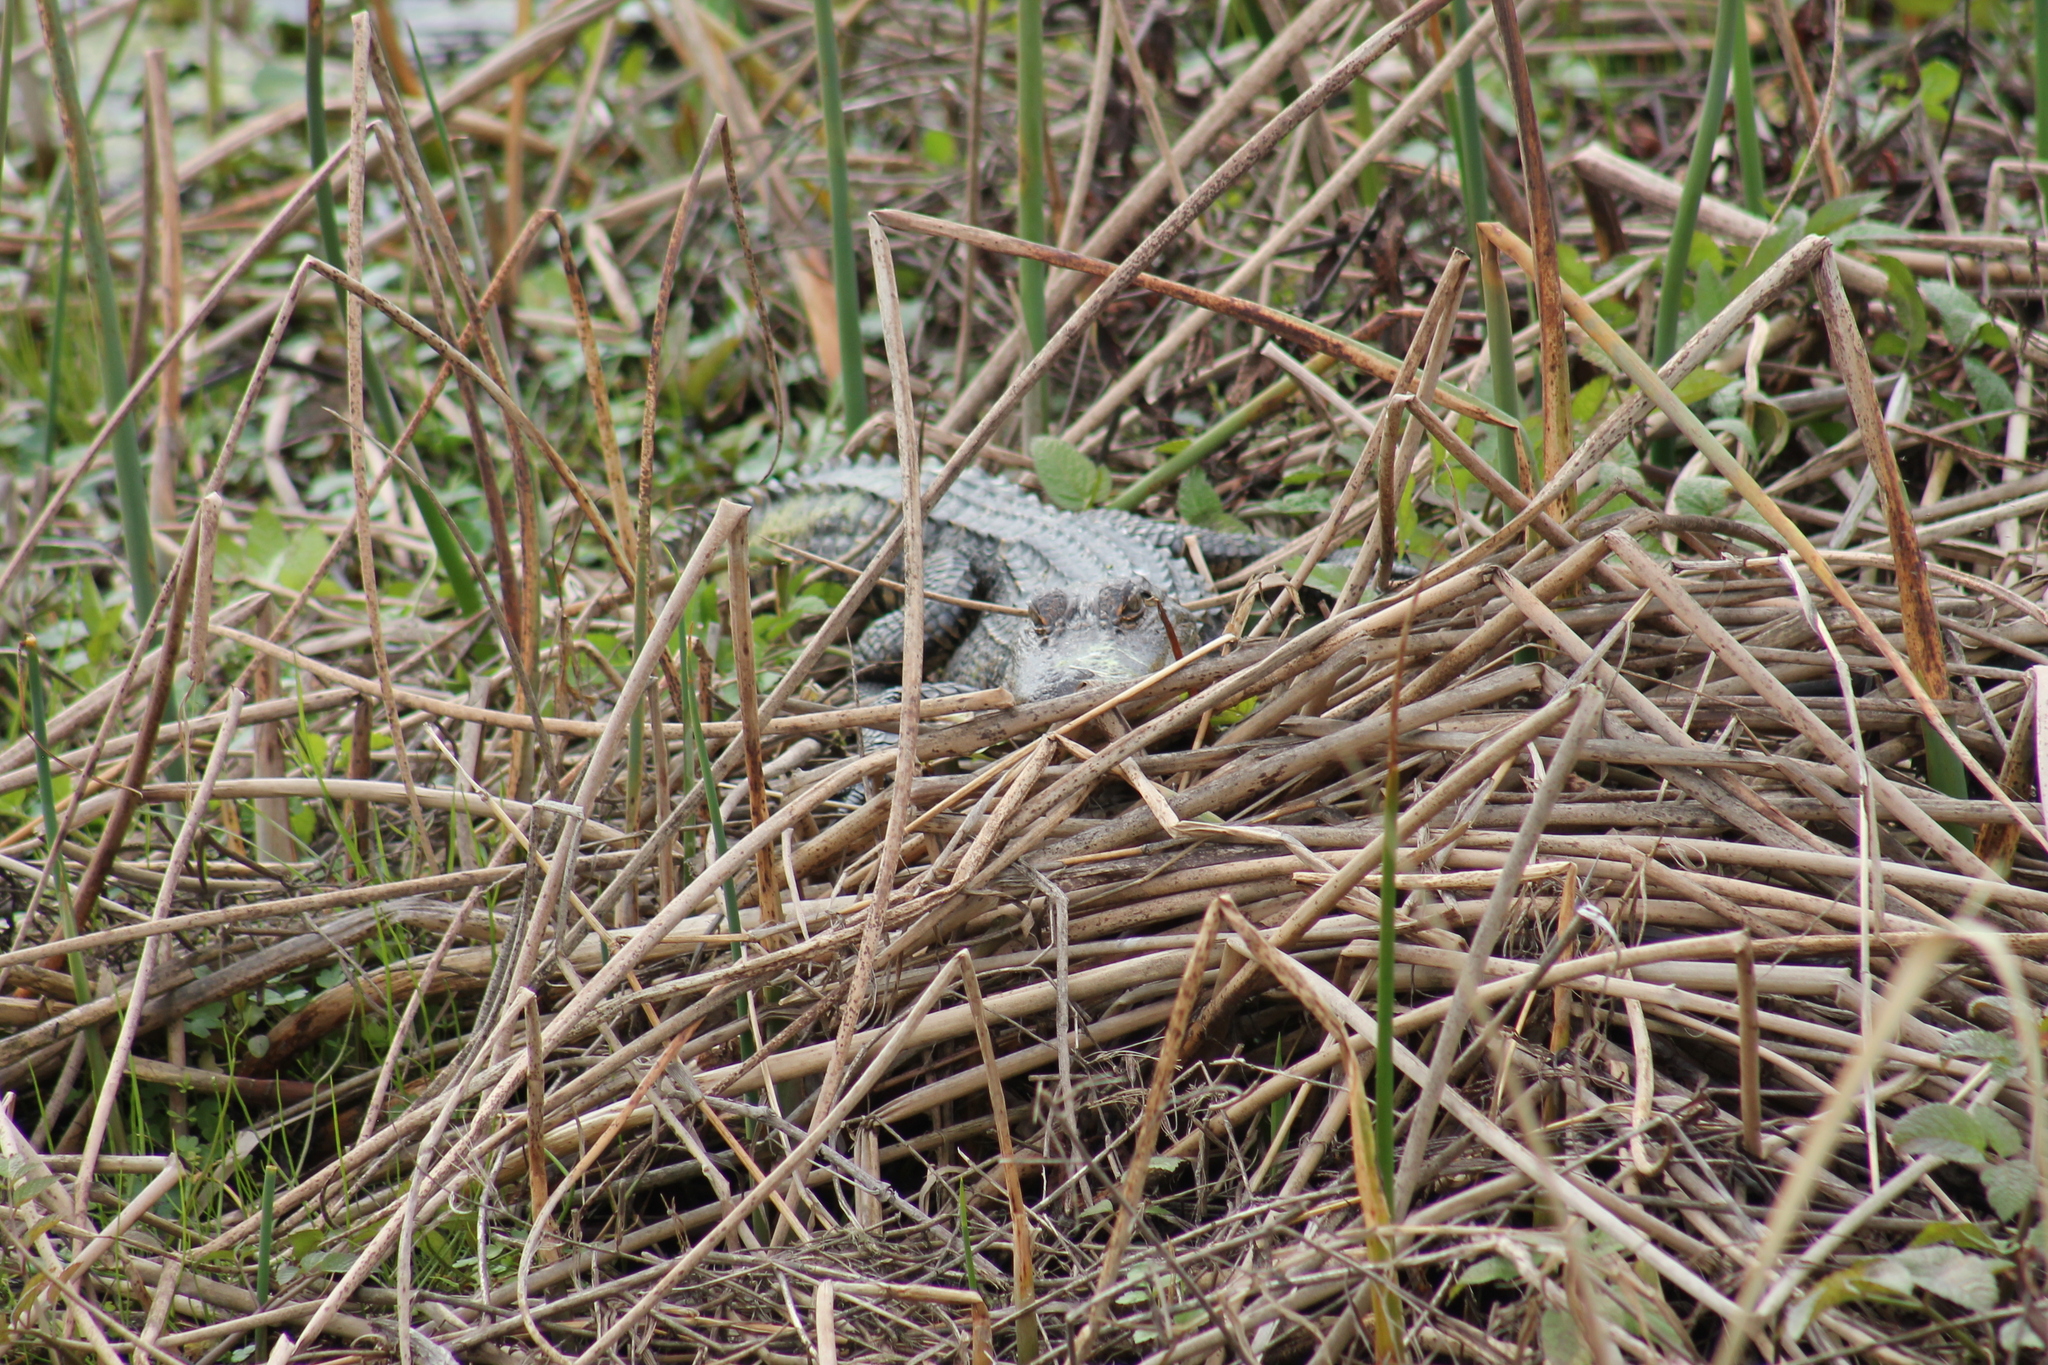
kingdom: Animalia
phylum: Chordata
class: Crocodylia
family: Alligatoridae
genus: Alligator
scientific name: Alligator mississippiensis
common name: American alligator
